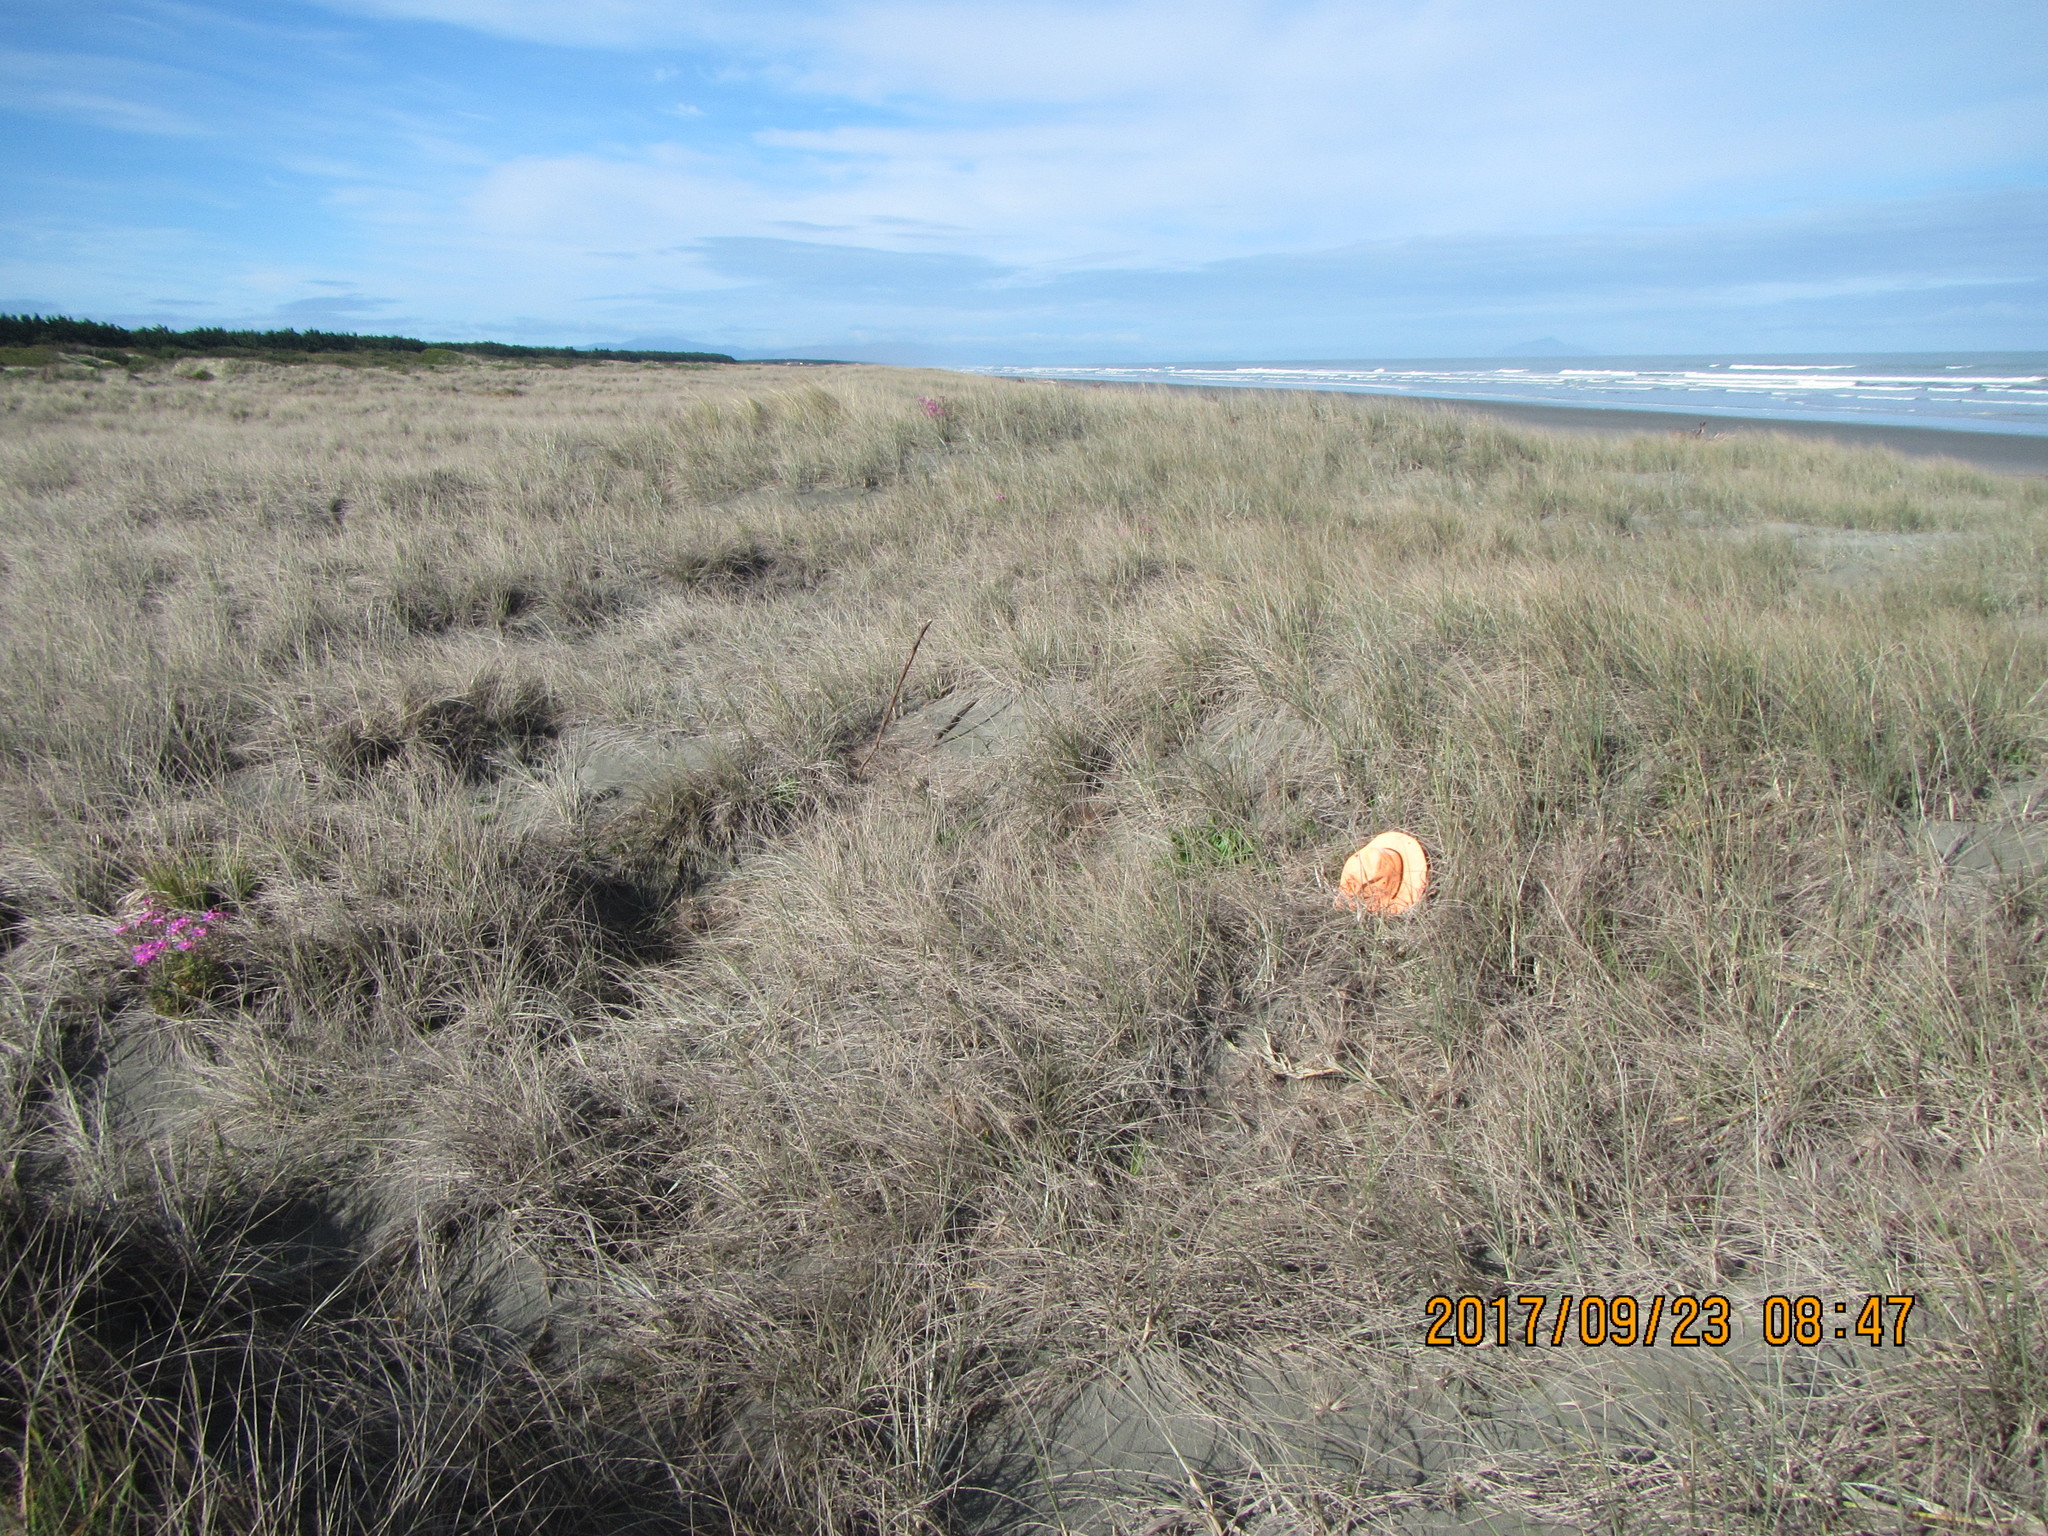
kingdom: Animalia
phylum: Arthropoda
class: Arachnida
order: Araneae
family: Mimetidae
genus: Australomimetus
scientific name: Australomimetus hartleyensis
